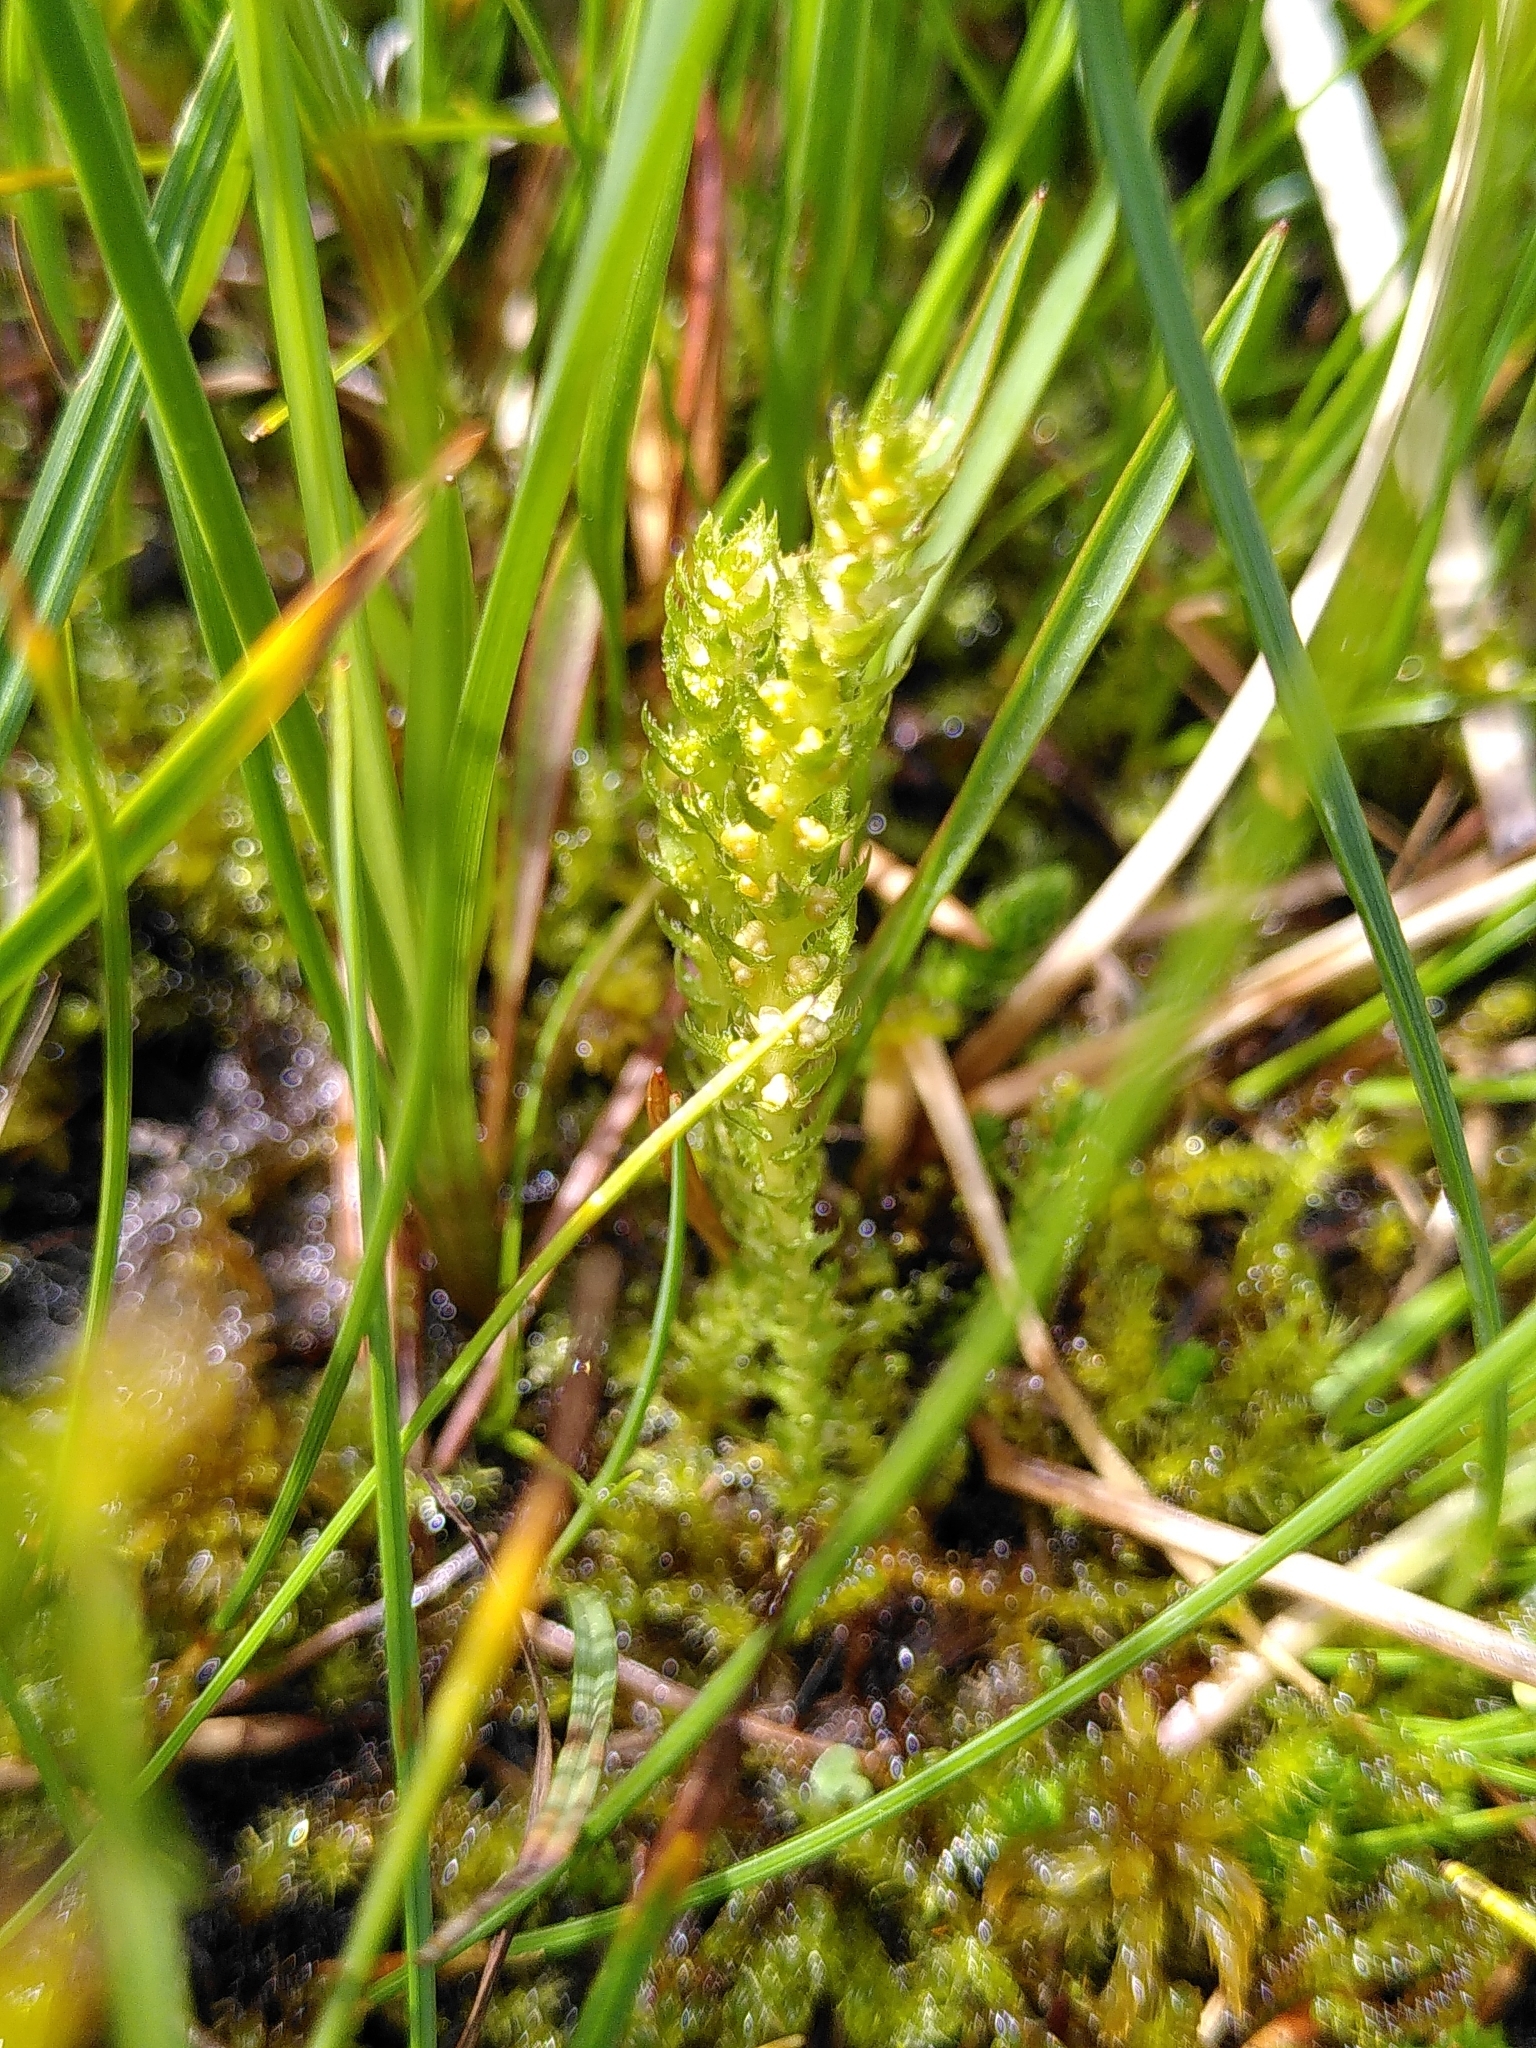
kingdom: Plantae
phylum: Tracheophyta
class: Lycopodiopsida
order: Selaginellales
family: Selaginellaceae
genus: Selaginella
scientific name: Selaginella selaginoides
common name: Prickly mountain-moss
